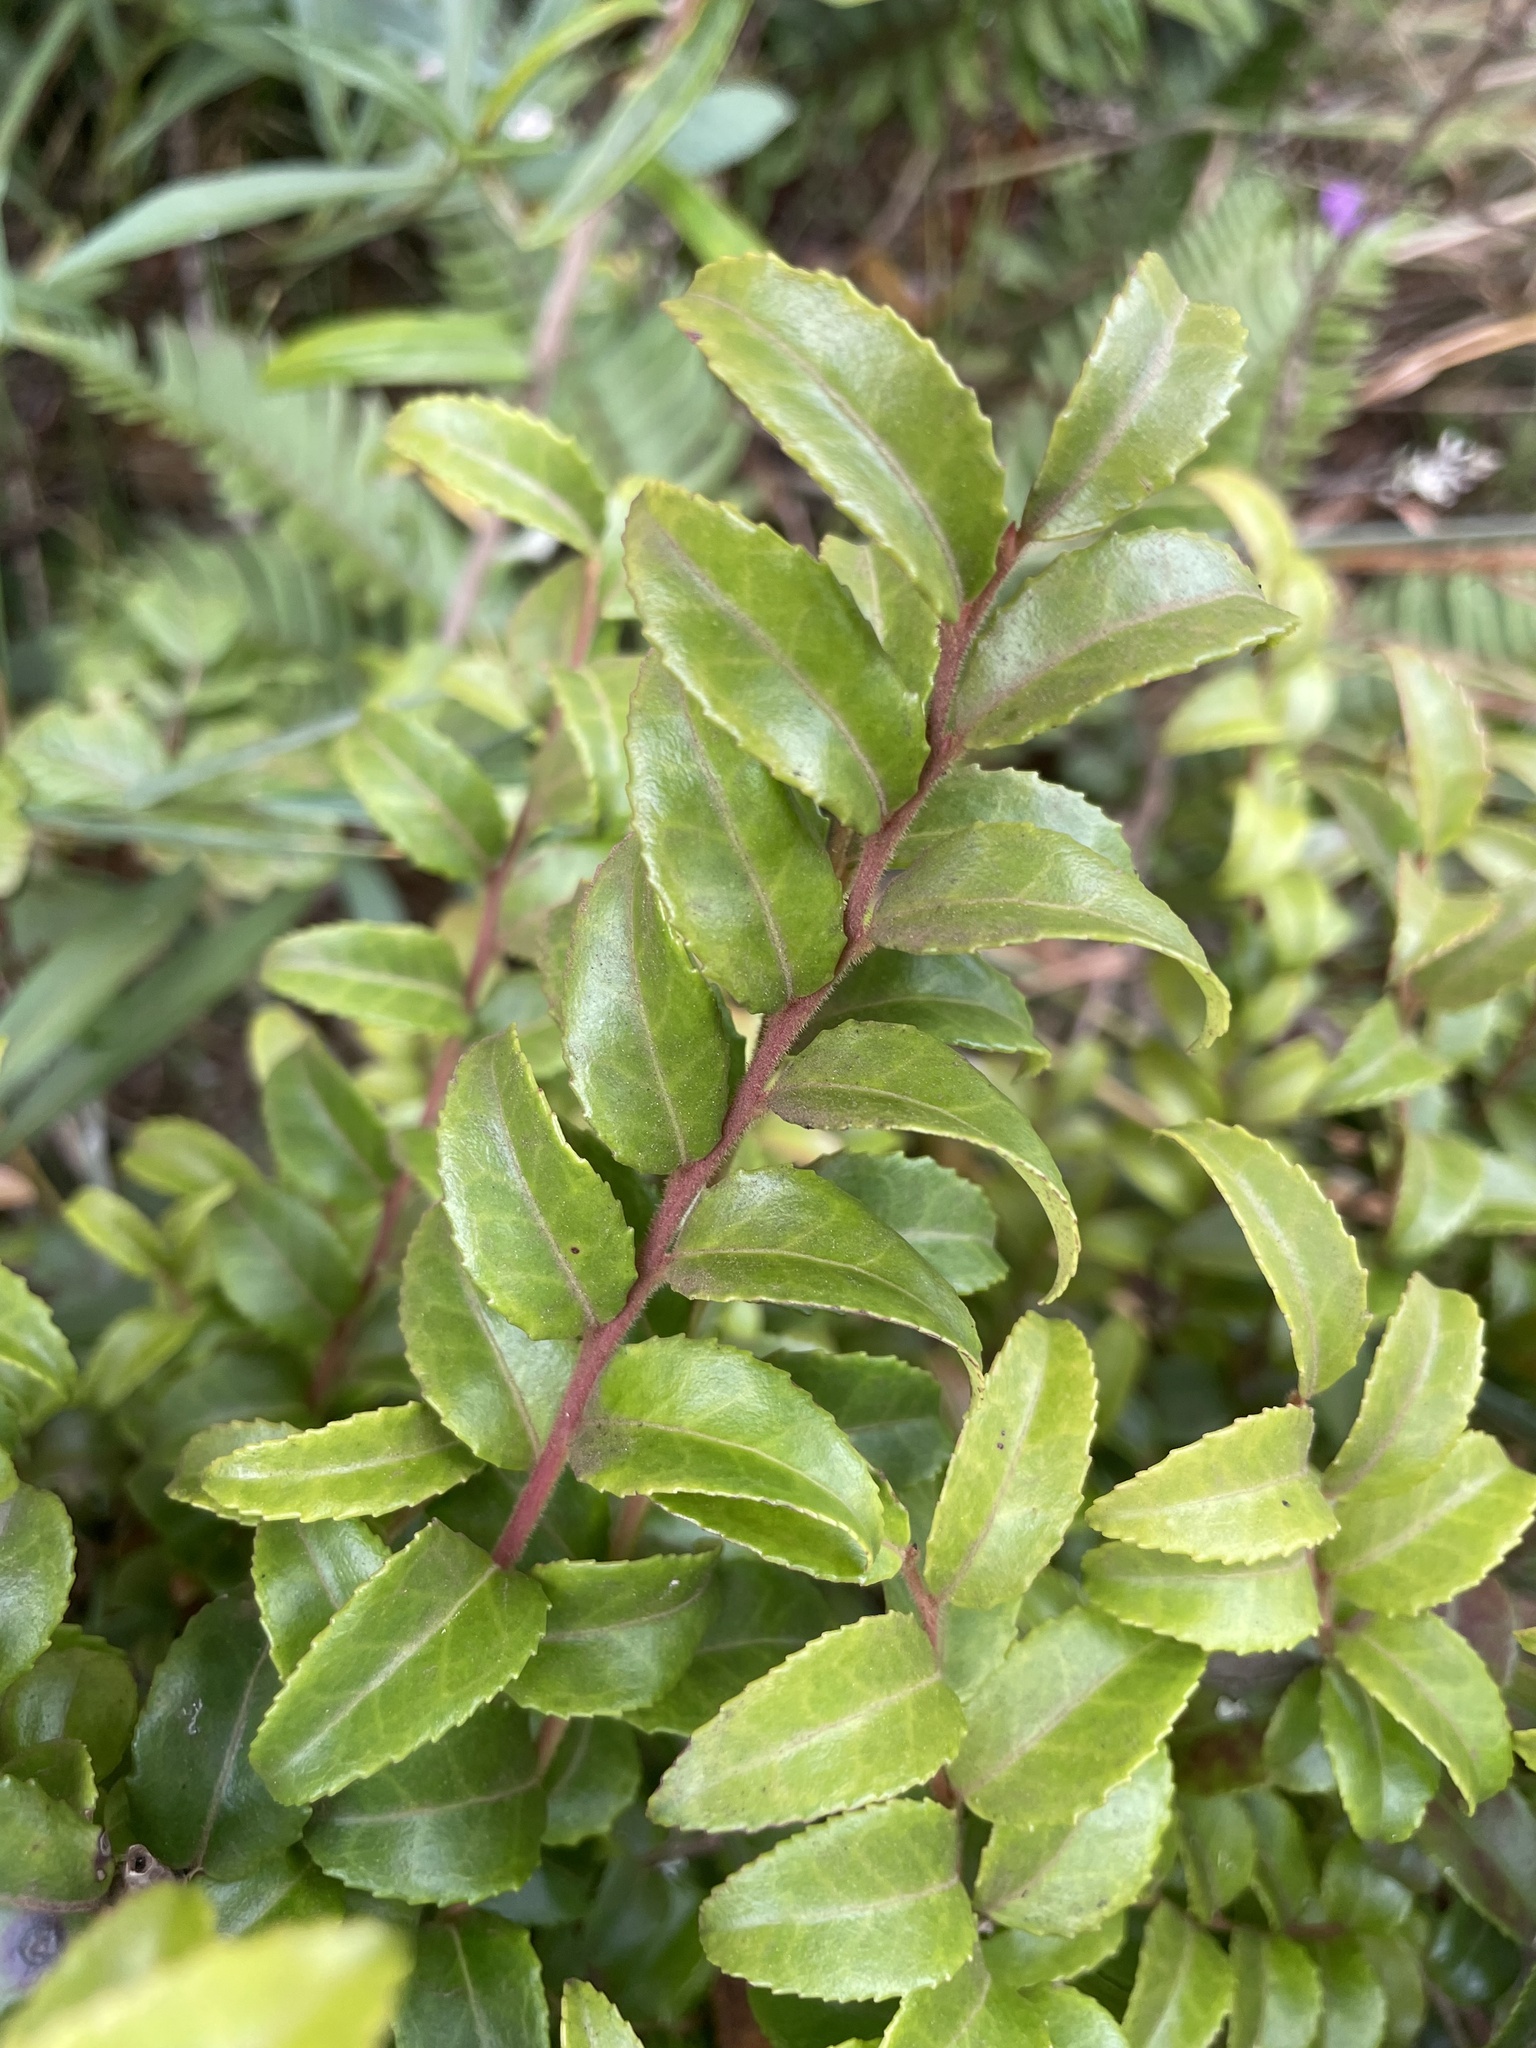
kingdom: Plantae
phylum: Tracheophyta
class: Magnoliopsida
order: Ericales
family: Ericaceae
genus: Vaccinium
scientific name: Vaccinium ovatum
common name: California-huckleberry
